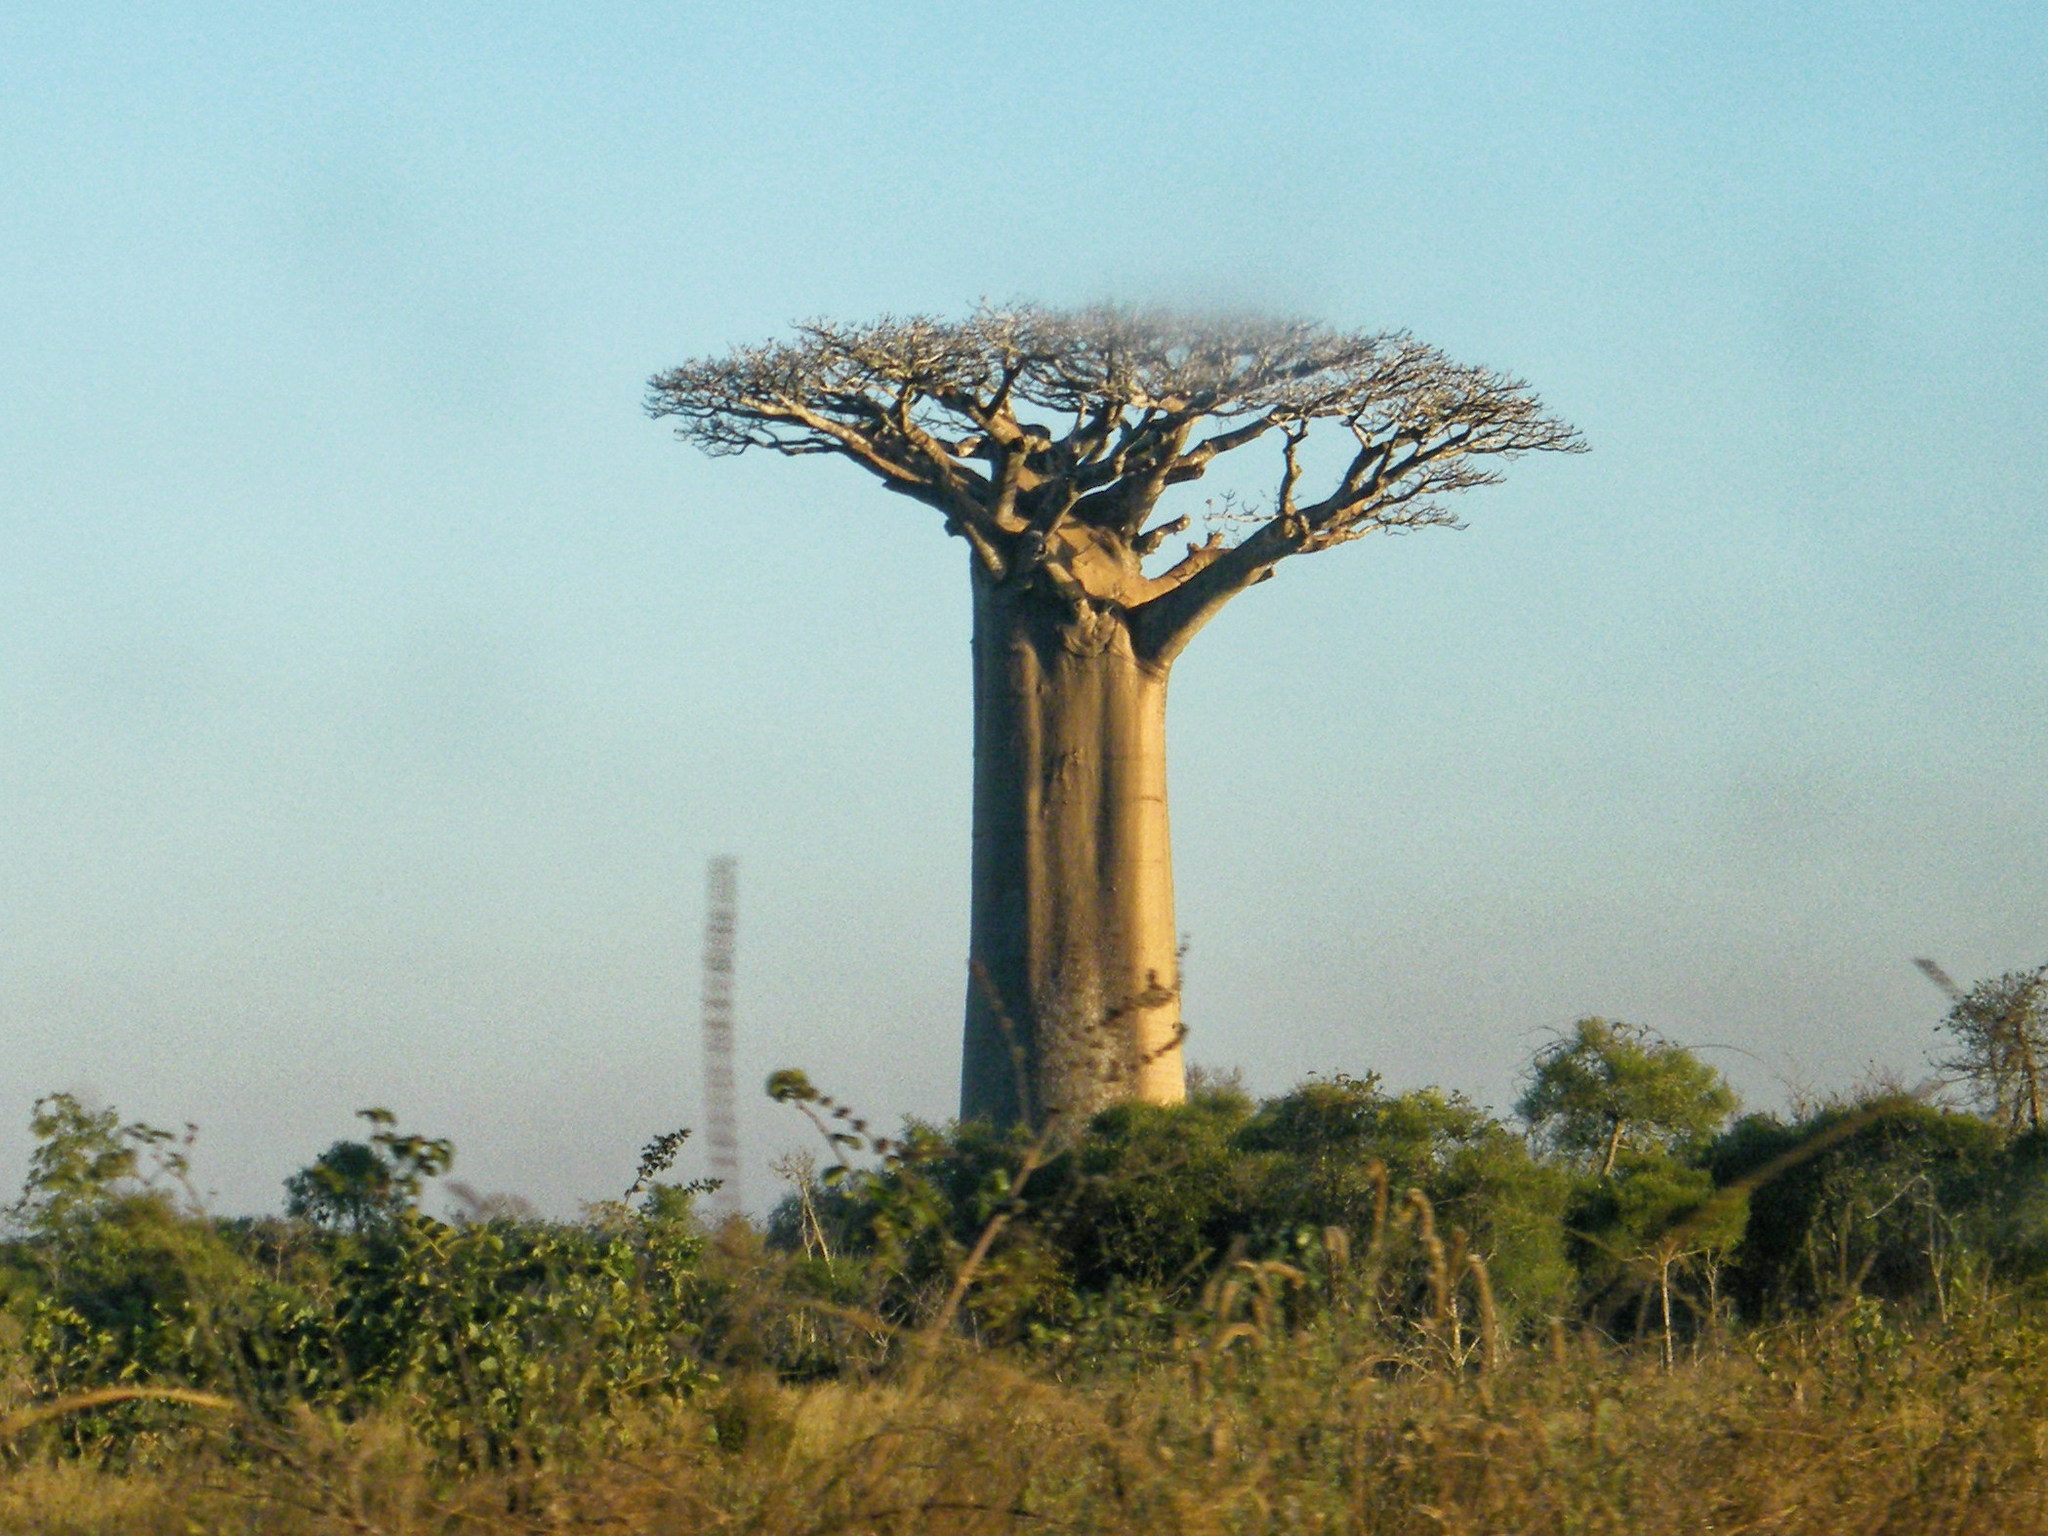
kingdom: Plantae
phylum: Tracheophyta
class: Magnoliopsida
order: Malvales
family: Malvaceae
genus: Adansonia
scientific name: Adansonia grandidieri
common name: Grandidier's baobab
